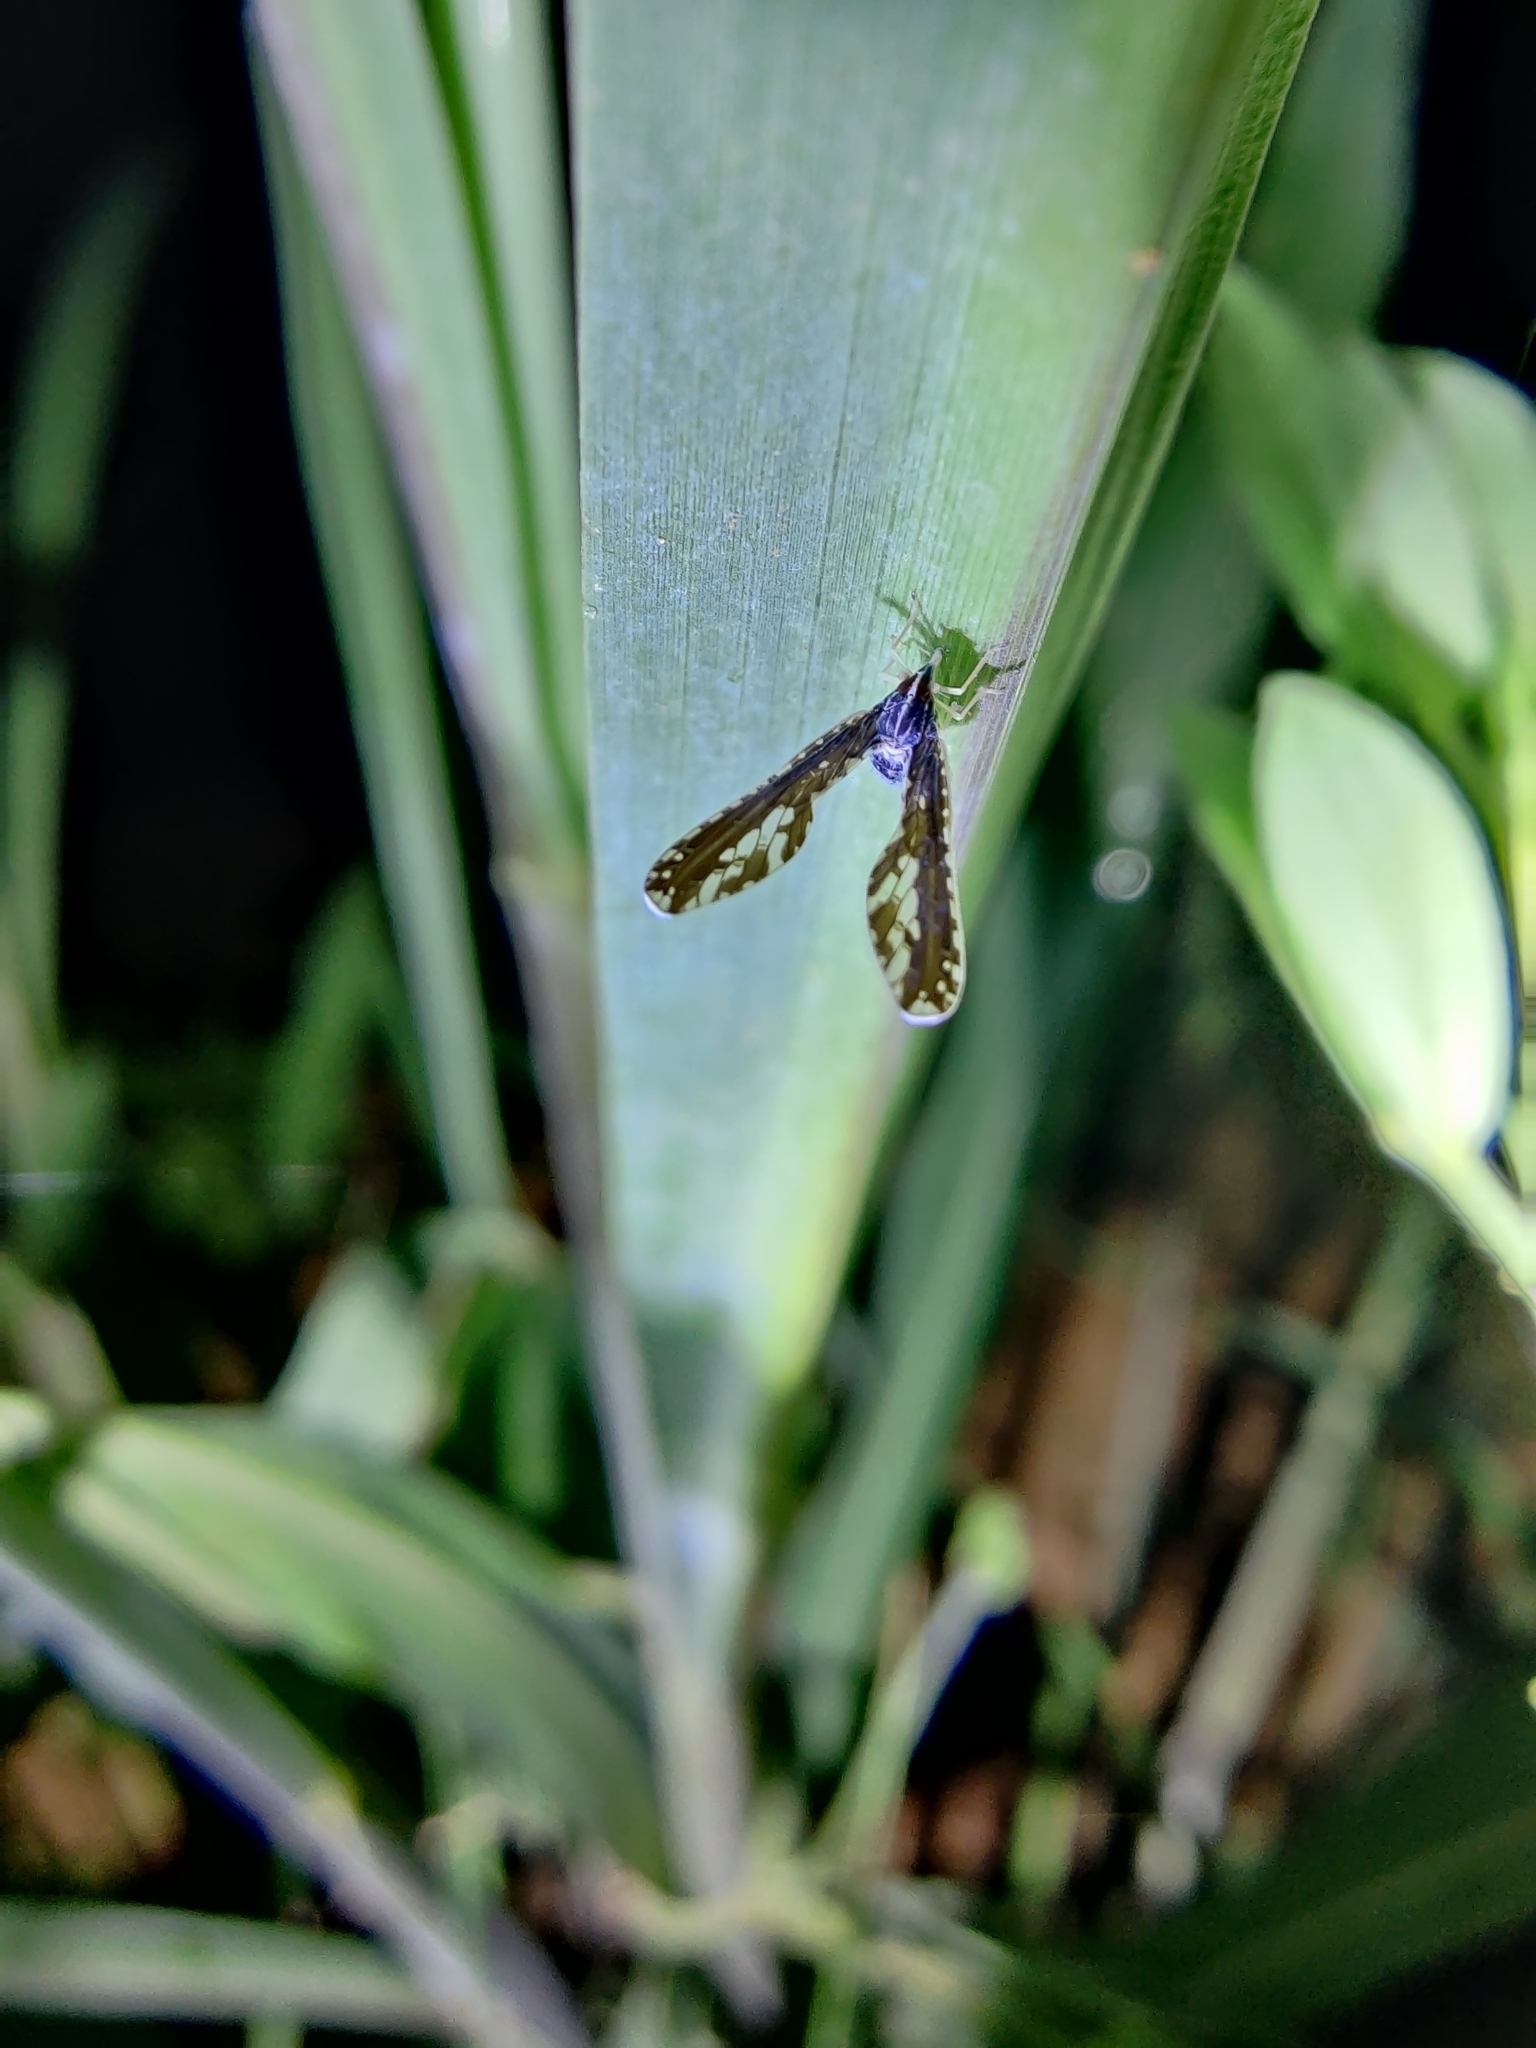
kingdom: Animalia
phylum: Arthropoda
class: Insecta
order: Hemiptera
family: Derbidae
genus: Proutista
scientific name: Proutista moesta
